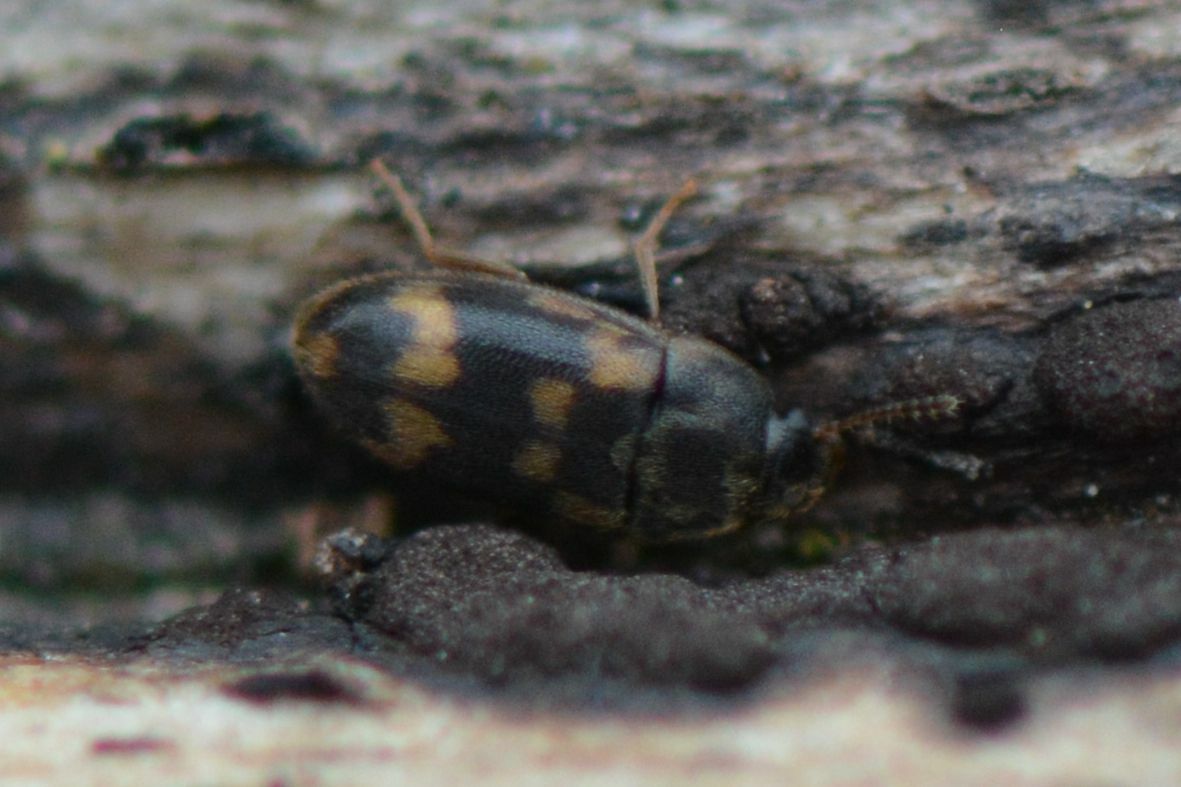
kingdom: Animalia
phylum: Arthropoda
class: Insecta
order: Coleoptera
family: Mycetophagidae
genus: Litargus
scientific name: Litargus connexus
